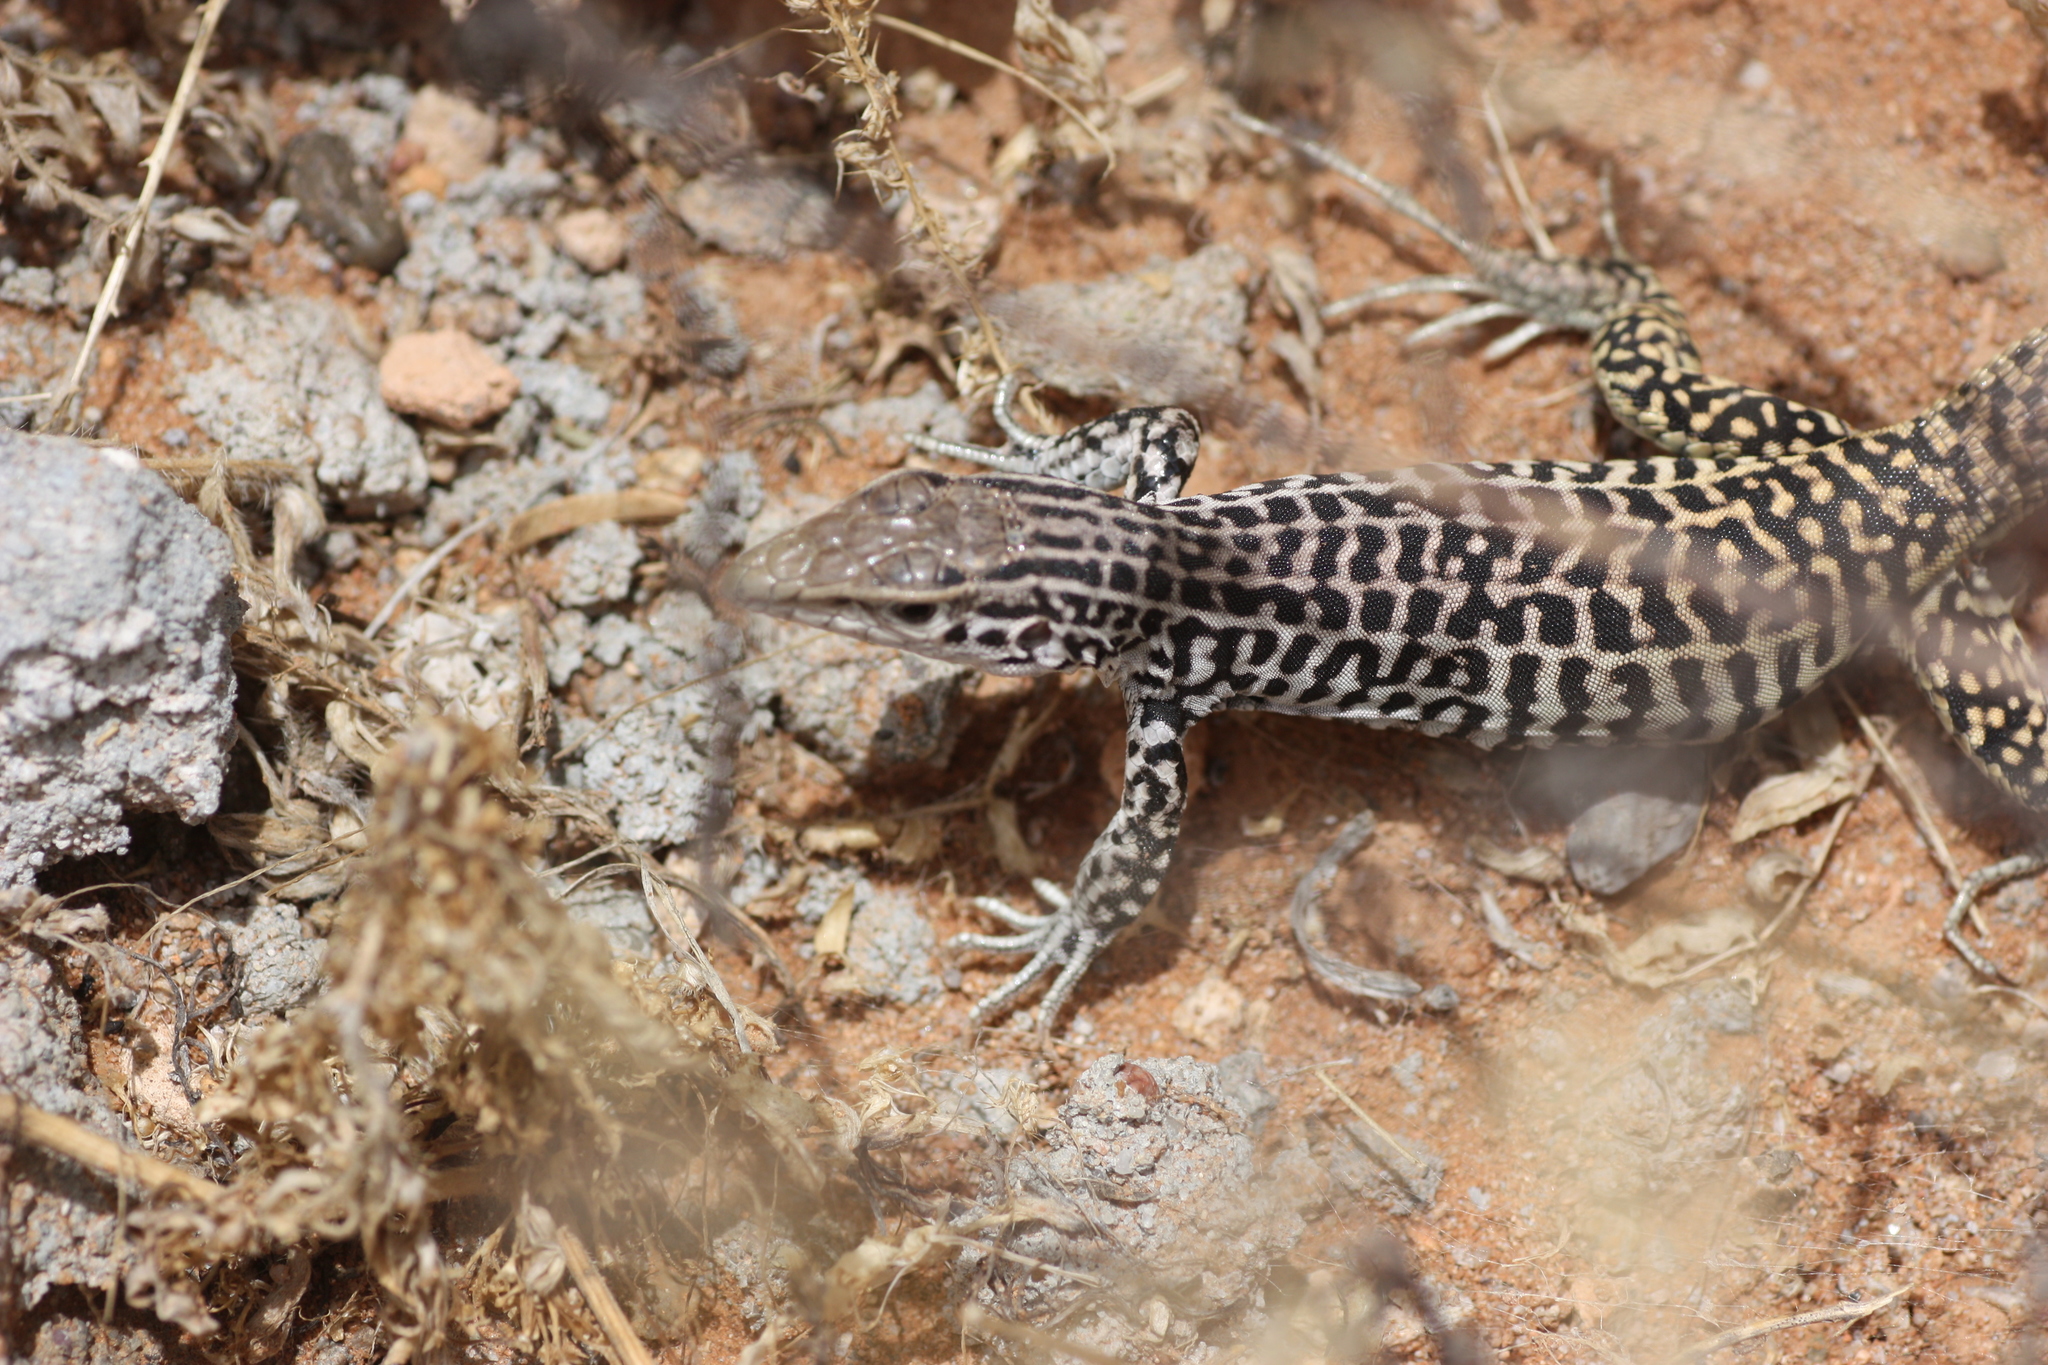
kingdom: Animalia
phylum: Chordata
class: Squamata
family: Teiidae
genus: Aspidoscelis
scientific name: Aspidoscelis tesselatus
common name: Common checkered whiptail [tesselata]
